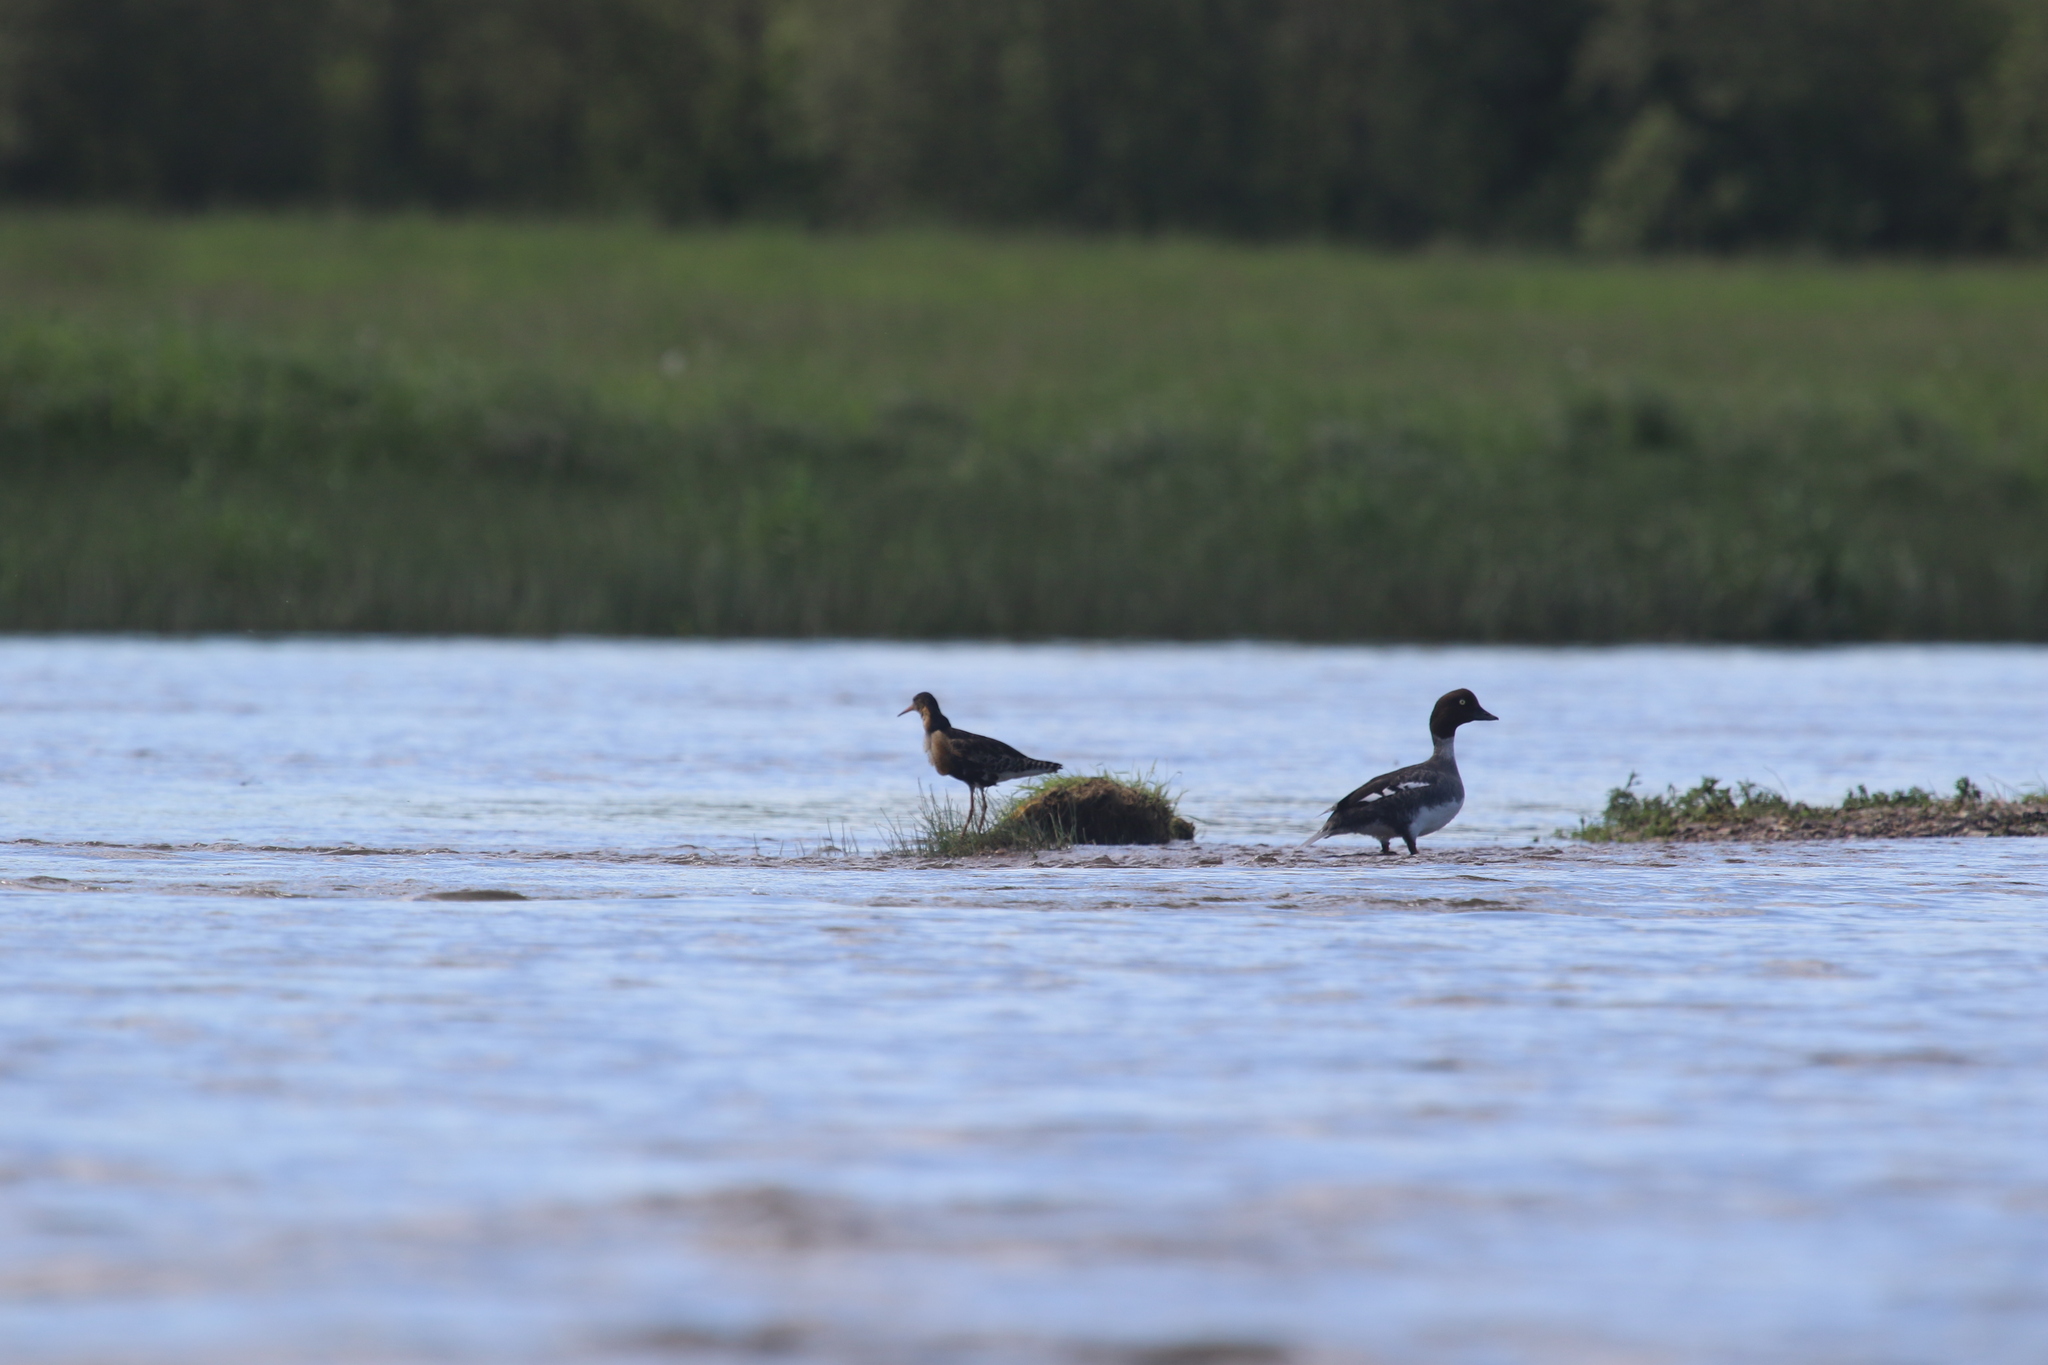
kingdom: Animalia
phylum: Chordata
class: Aves
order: Anseriformes
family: Anatidae
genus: Bucephala
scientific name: Bucephala clangula
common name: Common goldeneye
